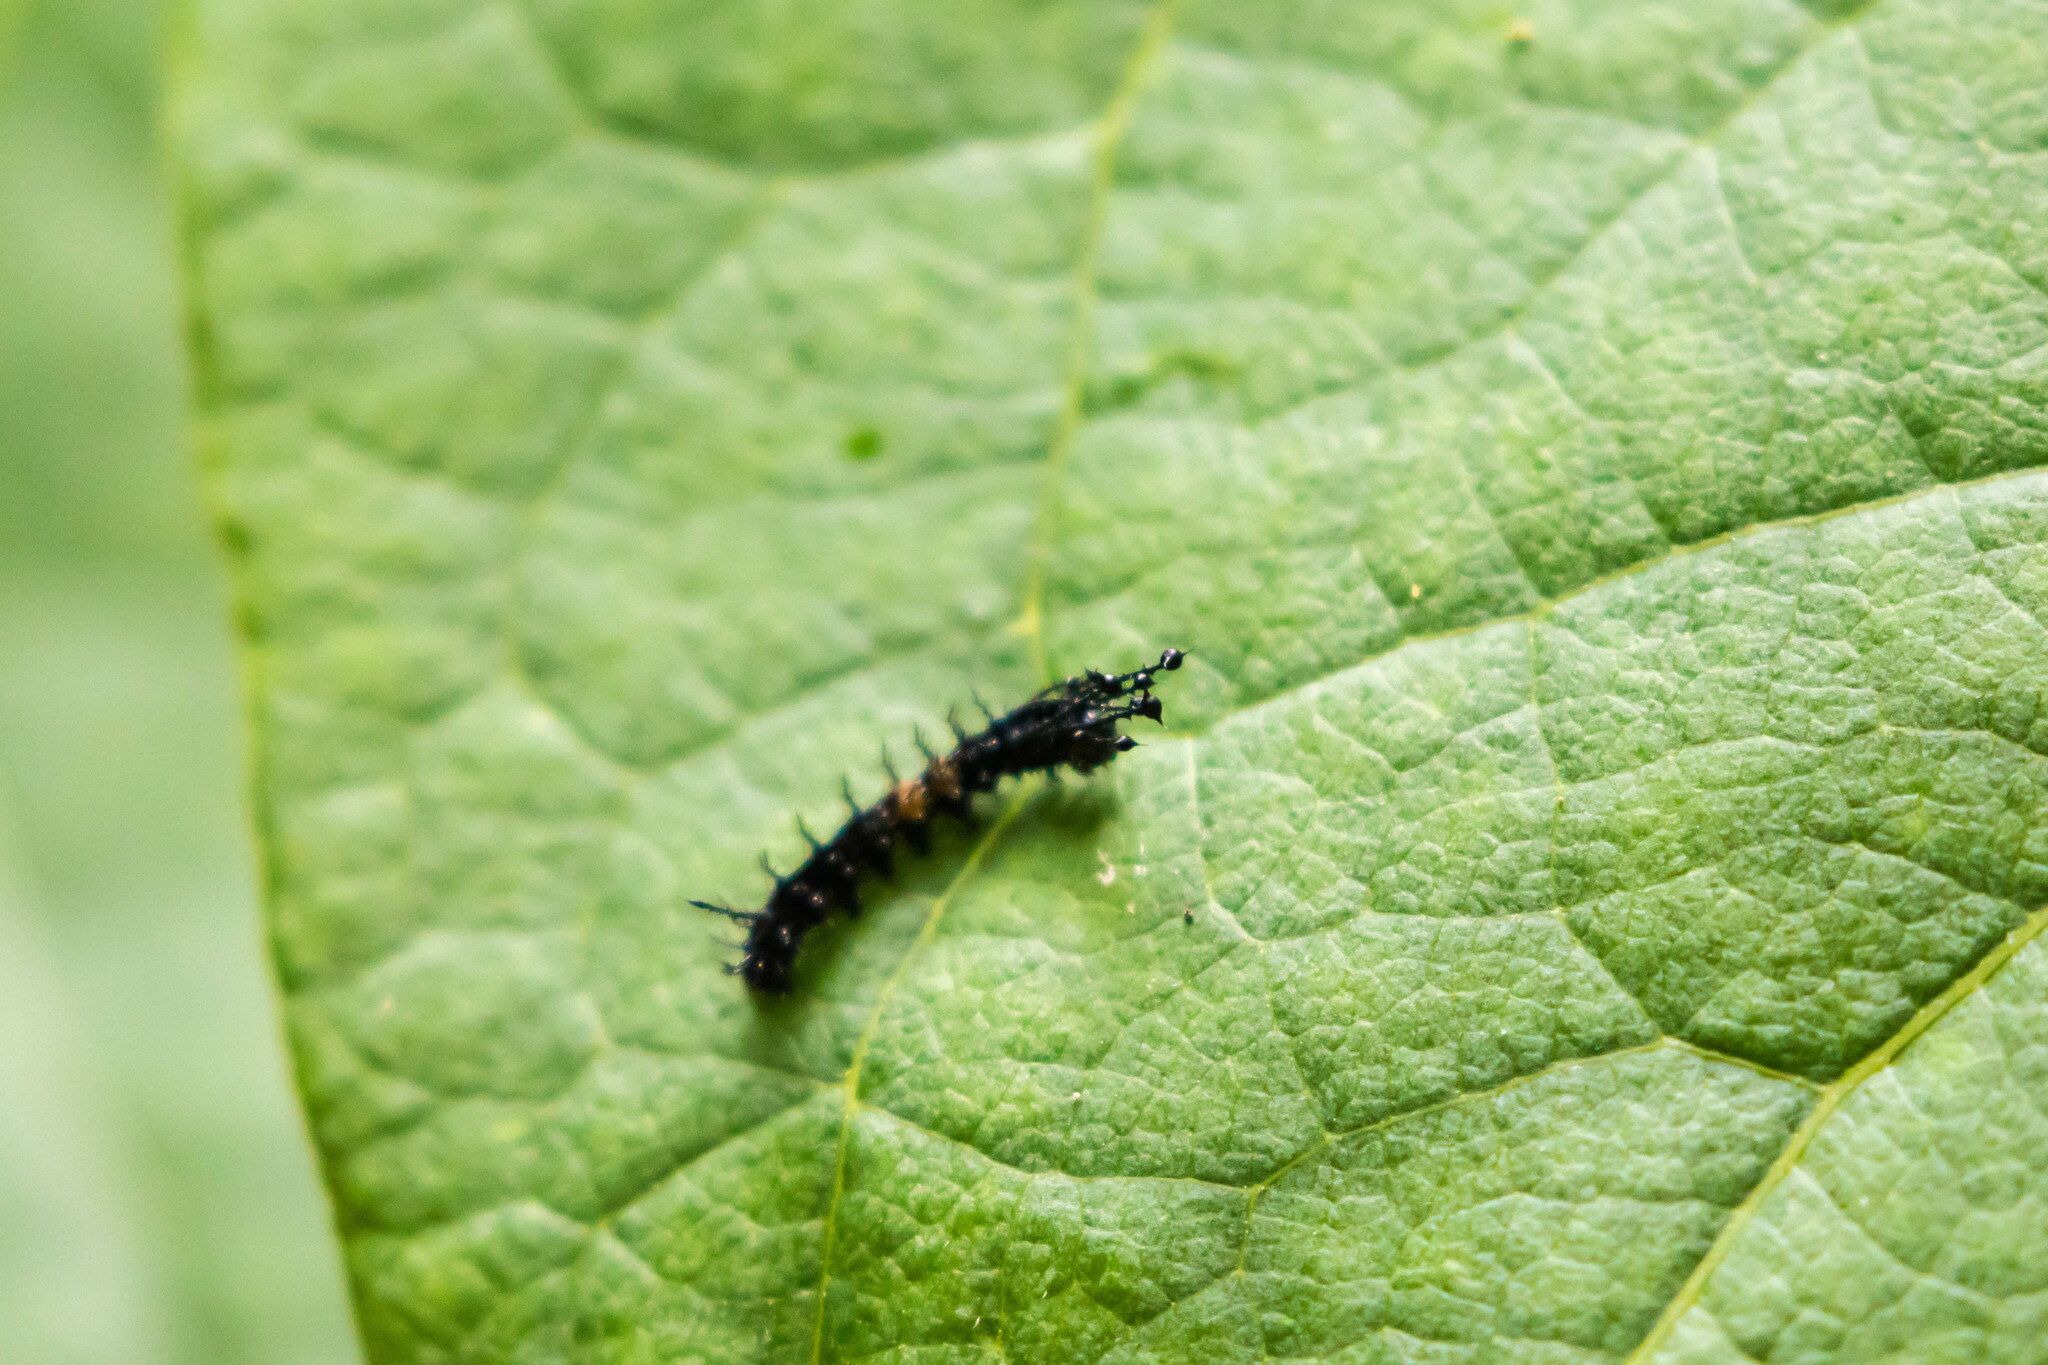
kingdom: Animalia
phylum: Arthropoda
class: Insecta
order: Lepidoptera
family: Saturniidae
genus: Citheronia
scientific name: Citheronia regalis
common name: Hickory horned devil
